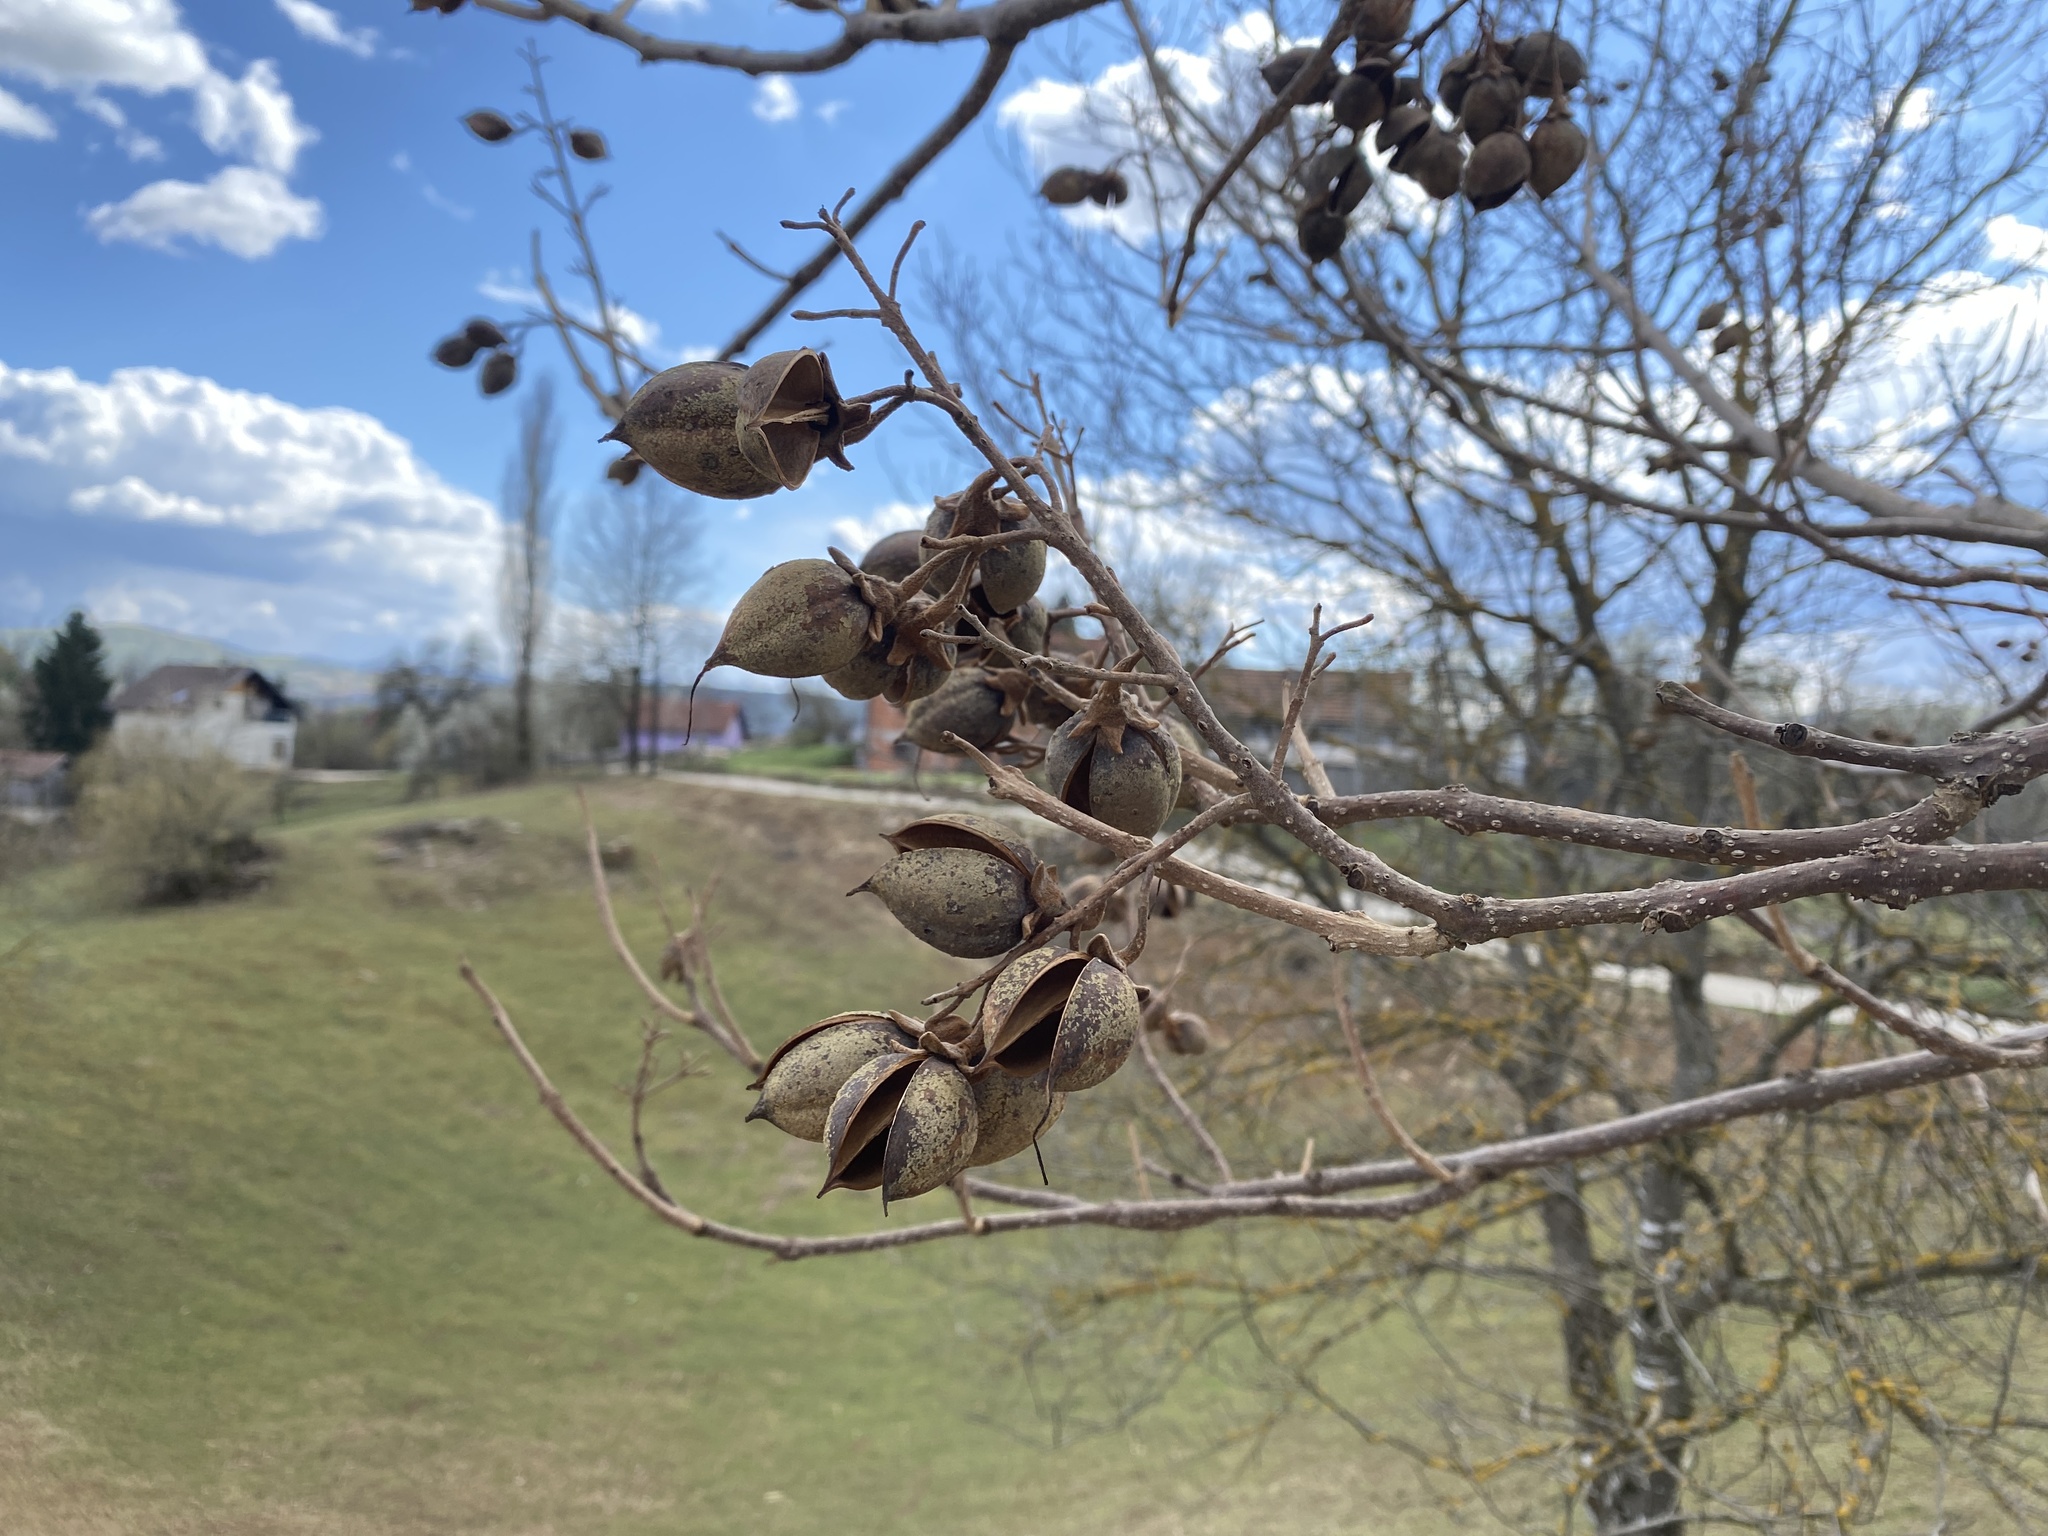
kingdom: Plantae
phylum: Tracheophyta
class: Magnoliopsida
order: Lamiales
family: Paulowniaceae
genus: Paulownia
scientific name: Paulownia tomentosa
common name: Foxglove-tree
